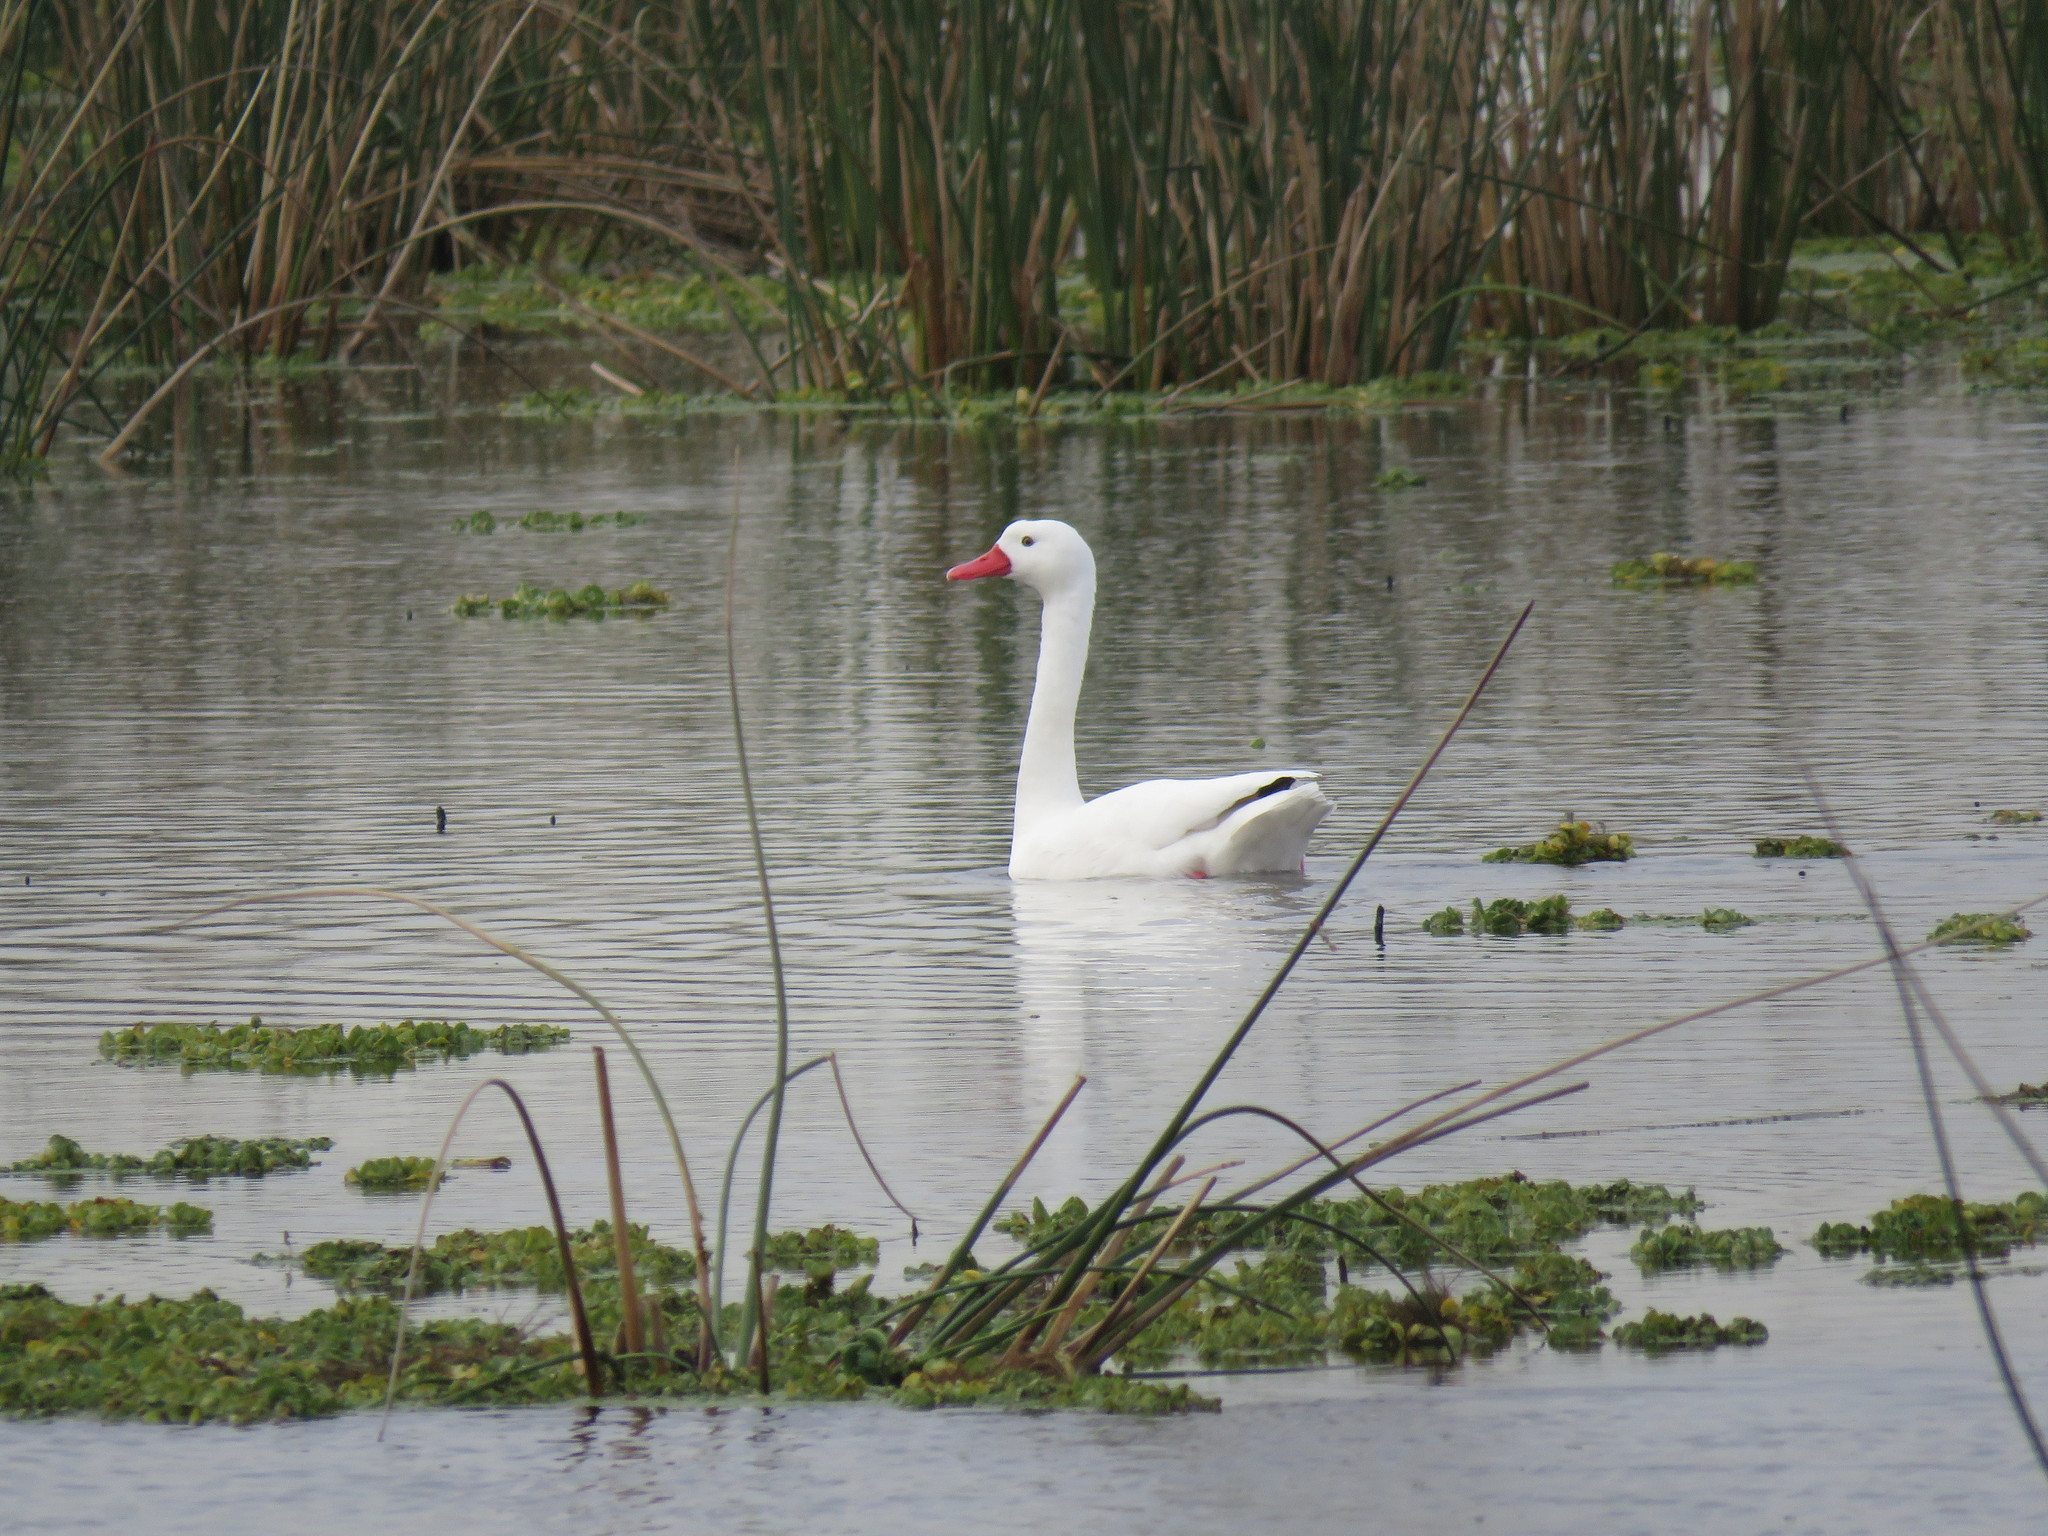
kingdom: Animalia
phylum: Chordata
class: Aves
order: Anseriformes
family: Anatidae
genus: Coscoroba
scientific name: Coscoroba coscoroba
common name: Coscoroba swan
